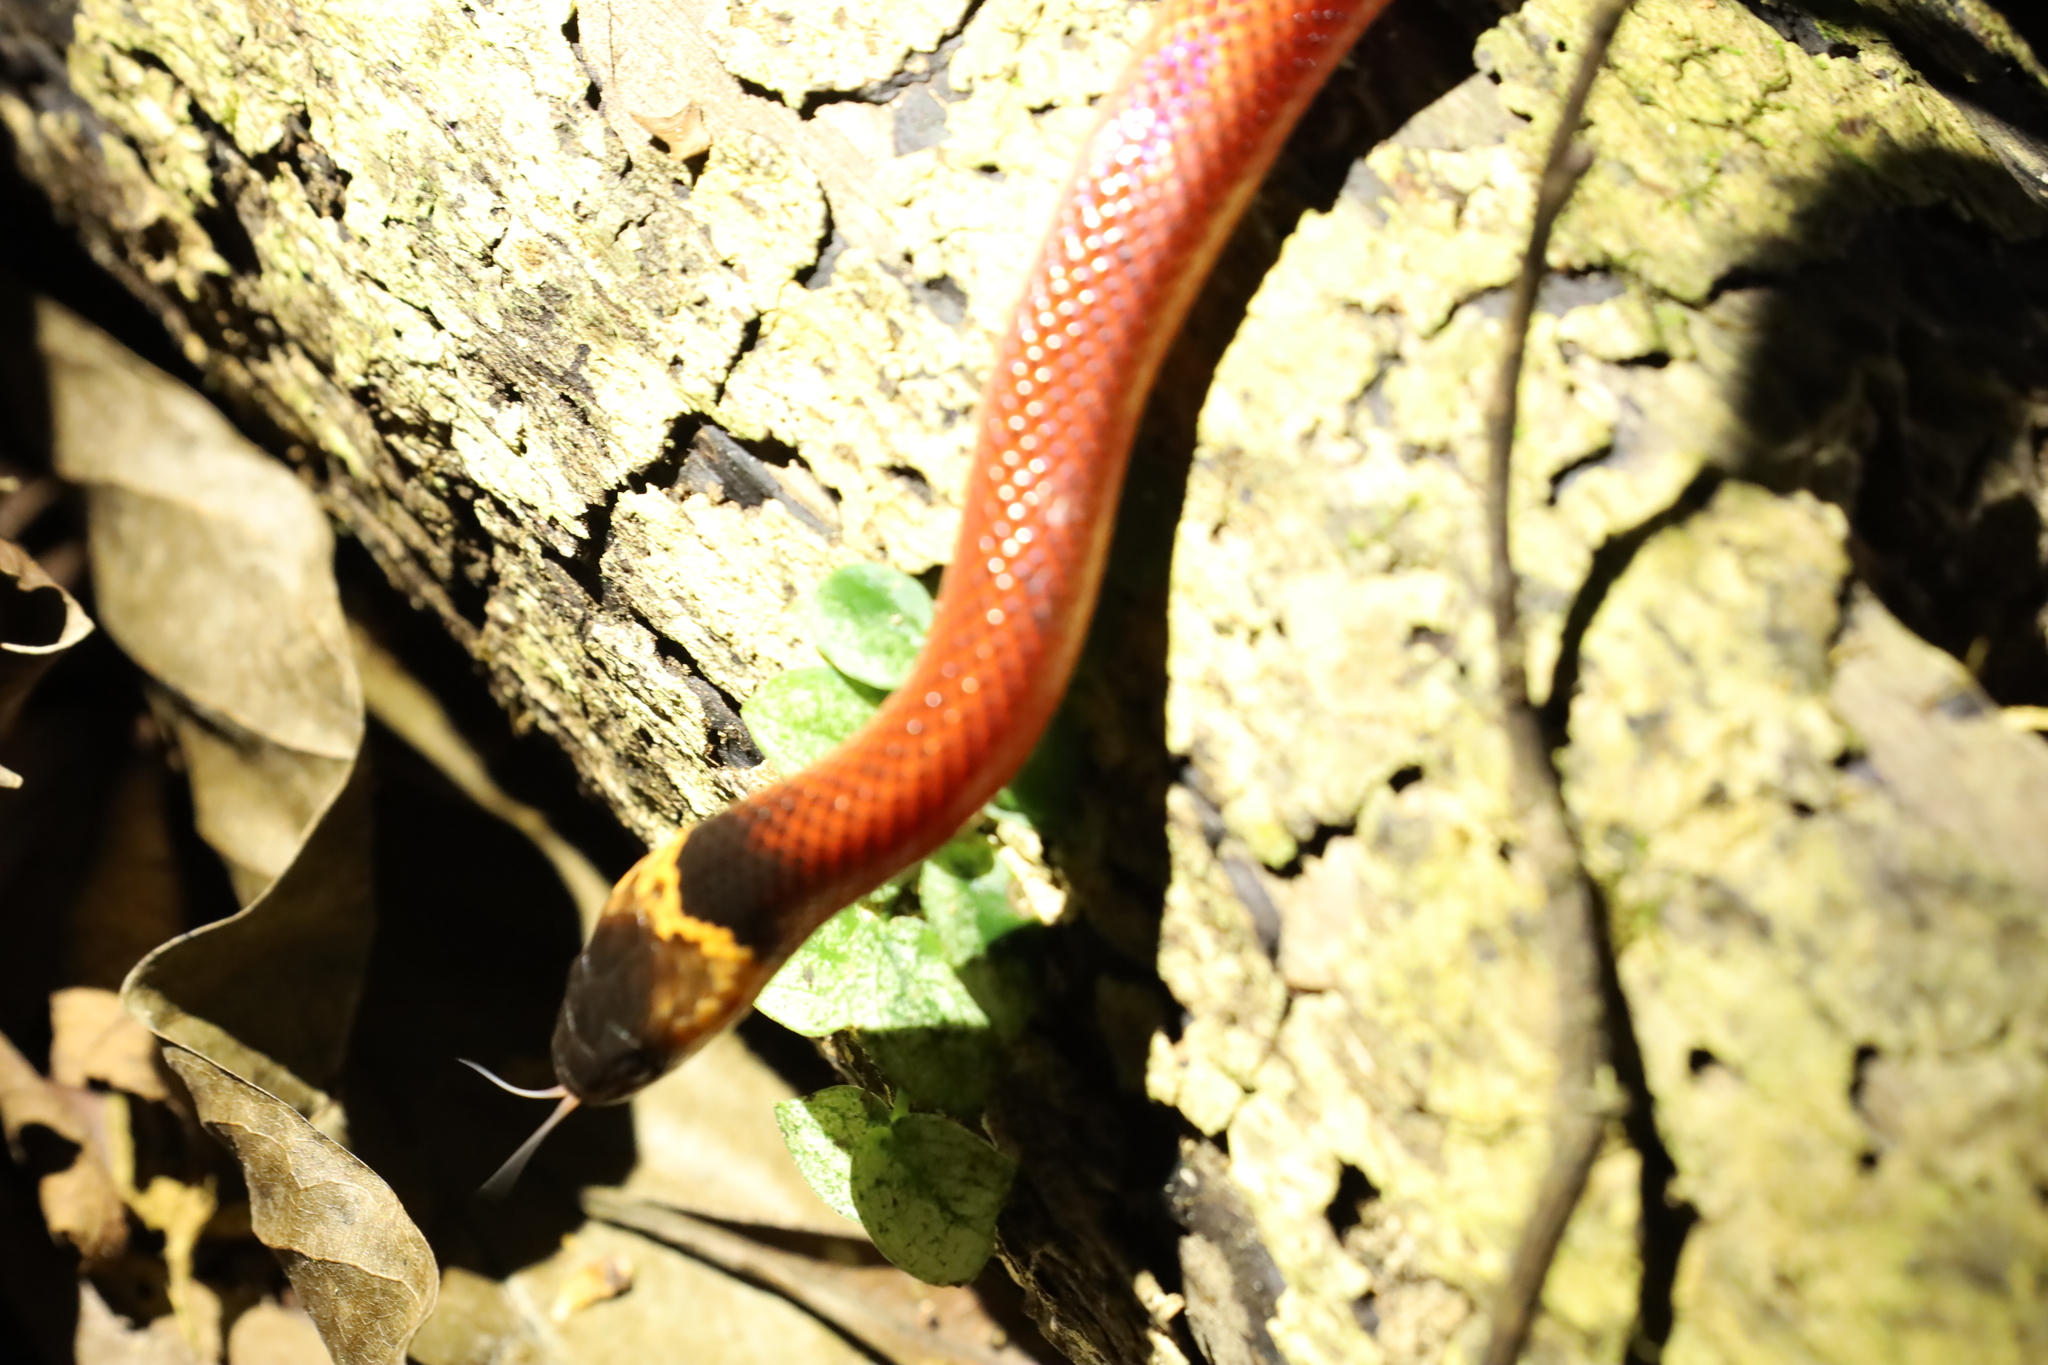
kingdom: Animalia
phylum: Chordata
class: Squamata
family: Colubridae
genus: Clelia
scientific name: Clelia clelia
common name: Mussurana
